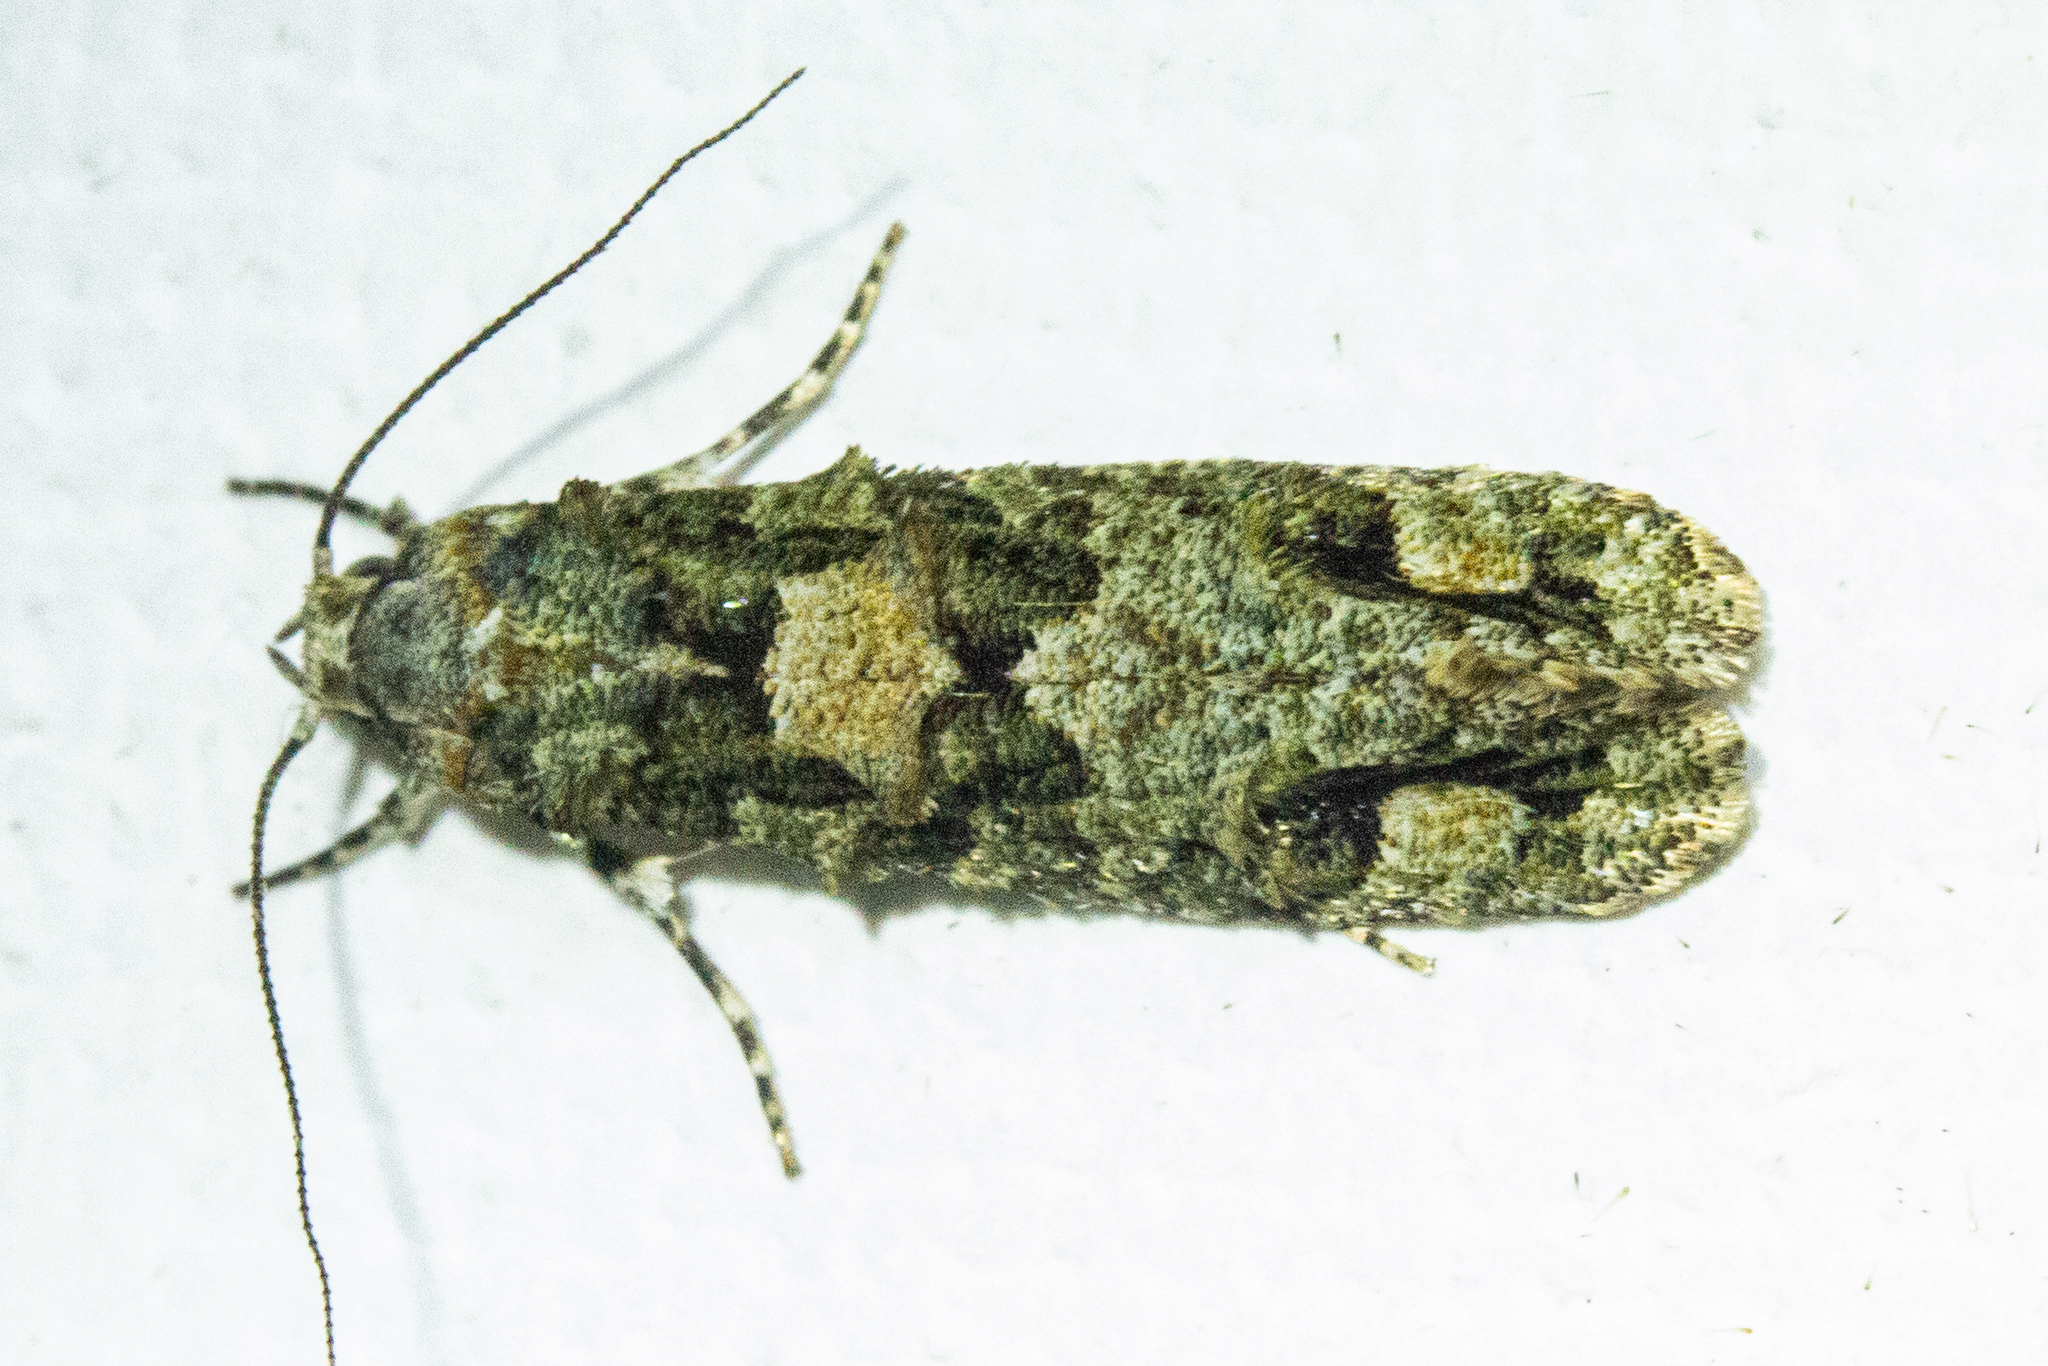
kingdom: Animalia
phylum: Arthropoda
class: Insecta
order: Lepidoptera
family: Tineidae
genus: Lysiphragma
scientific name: Lysiphragma howesii
